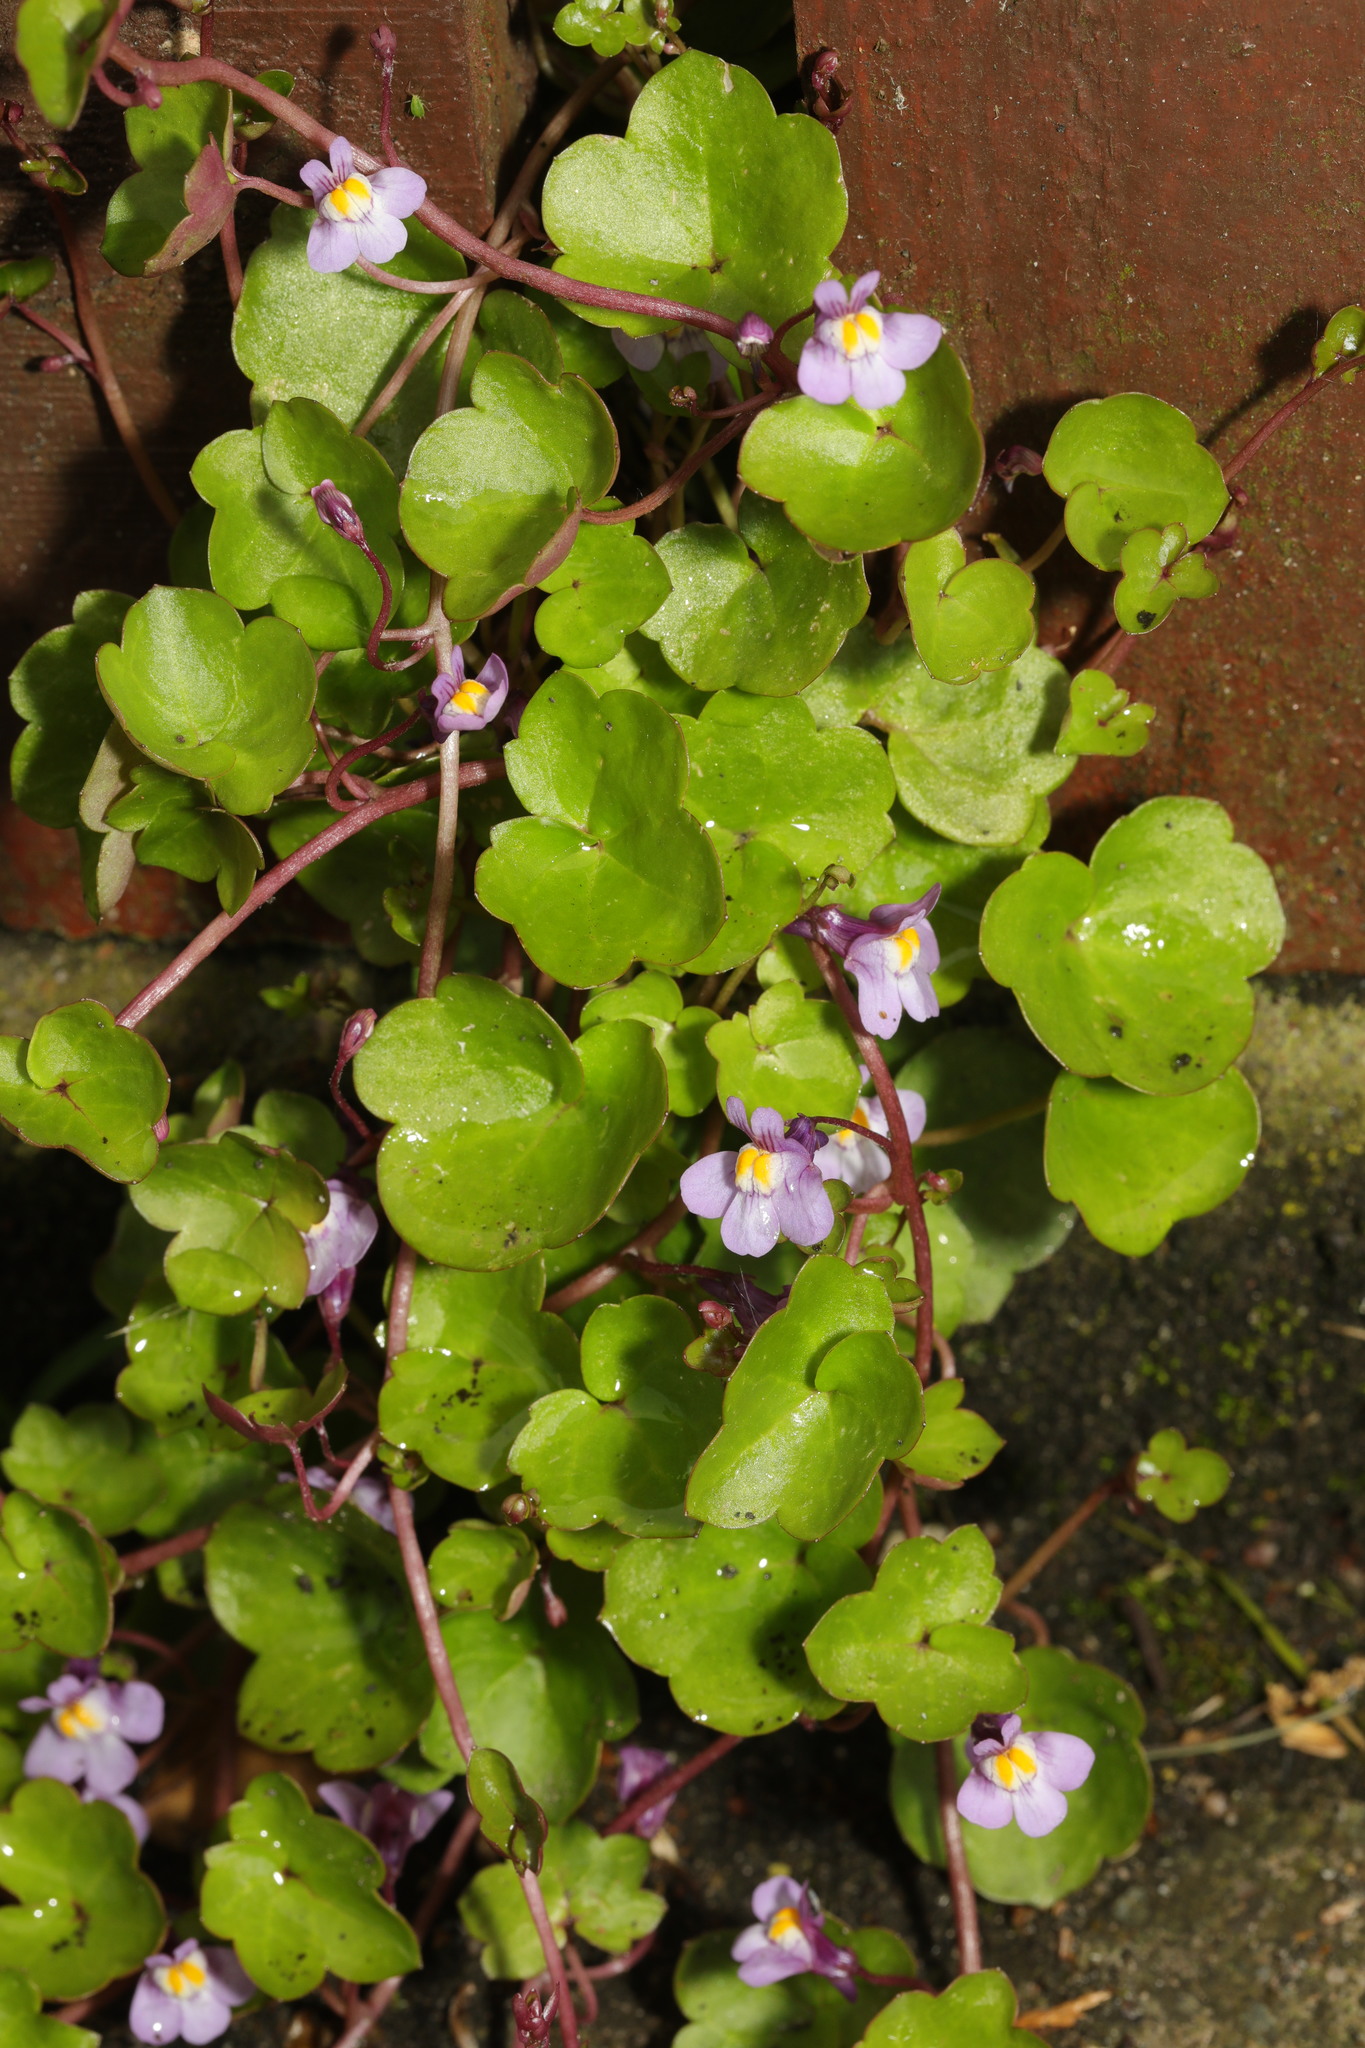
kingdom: Plantae
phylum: Tracheophyta
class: Magnoliopsida
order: Lamiales
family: Plantaginaceae
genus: Cymbalaria
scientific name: Cymbalaria muralis
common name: Ivy-leaved toadflax
